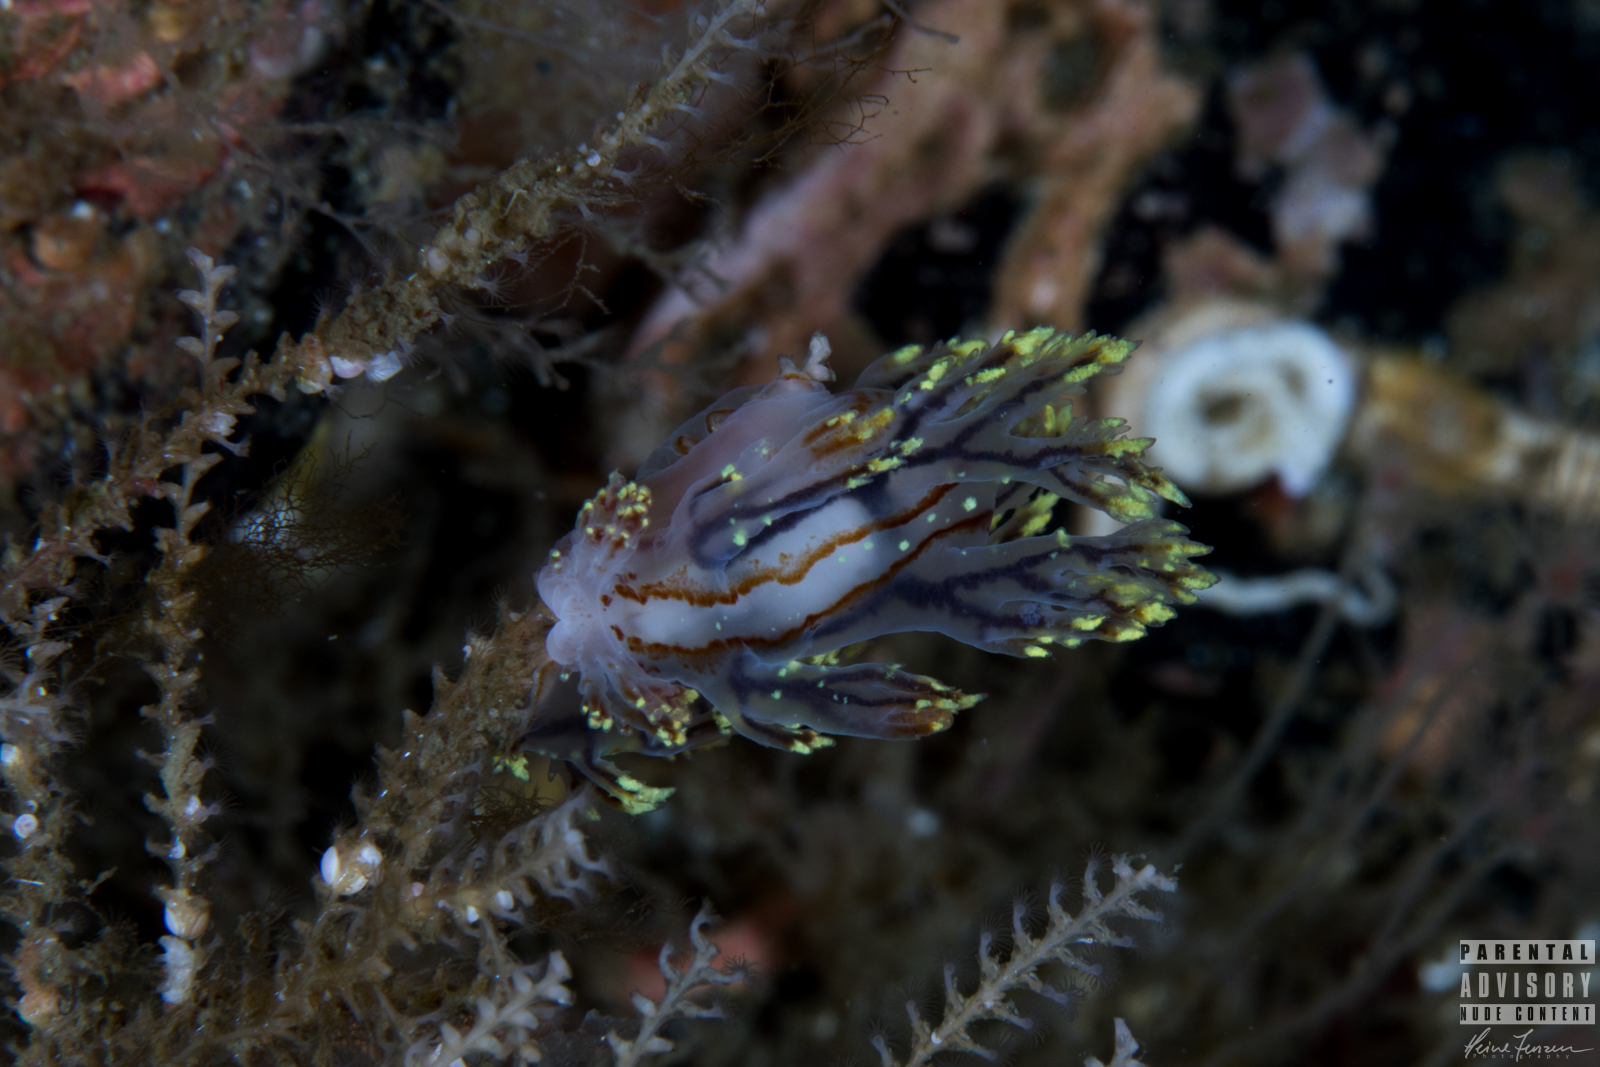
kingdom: Animalia
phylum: Mollusca
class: Gastropoda
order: Nudibranchia
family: Dendronotidae
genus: Dendronotus
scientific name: Dendronotus yrjargul
